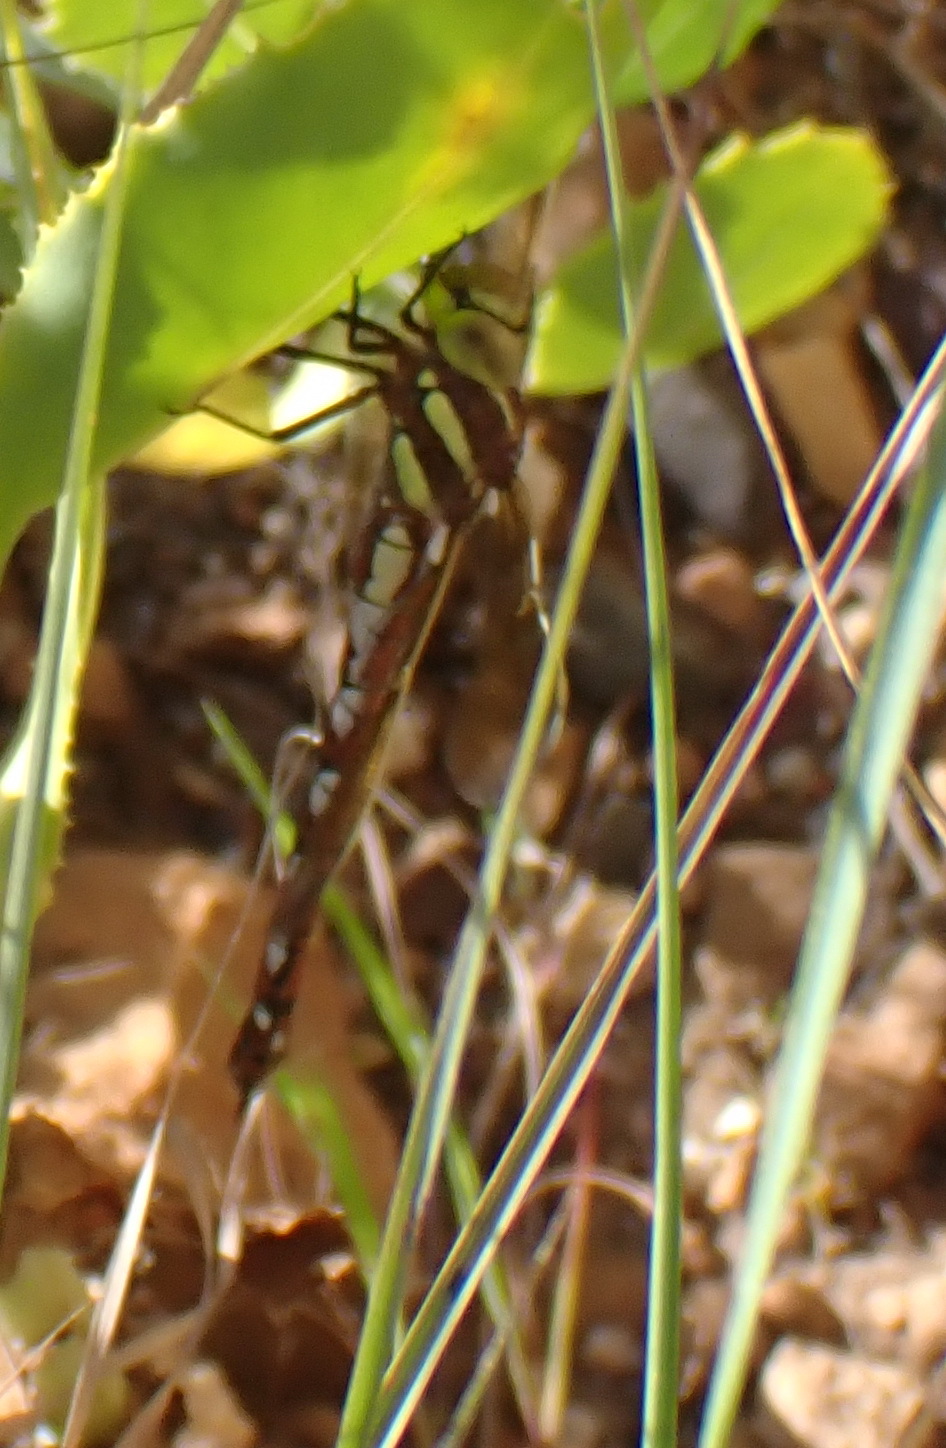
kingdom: Animalia
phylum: Arthropoda
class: Insecta
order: Odonata
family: Aeshnidae
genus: Zosteraeschna
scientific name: Zosteraeschna minuscula
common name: Friendly hawker
